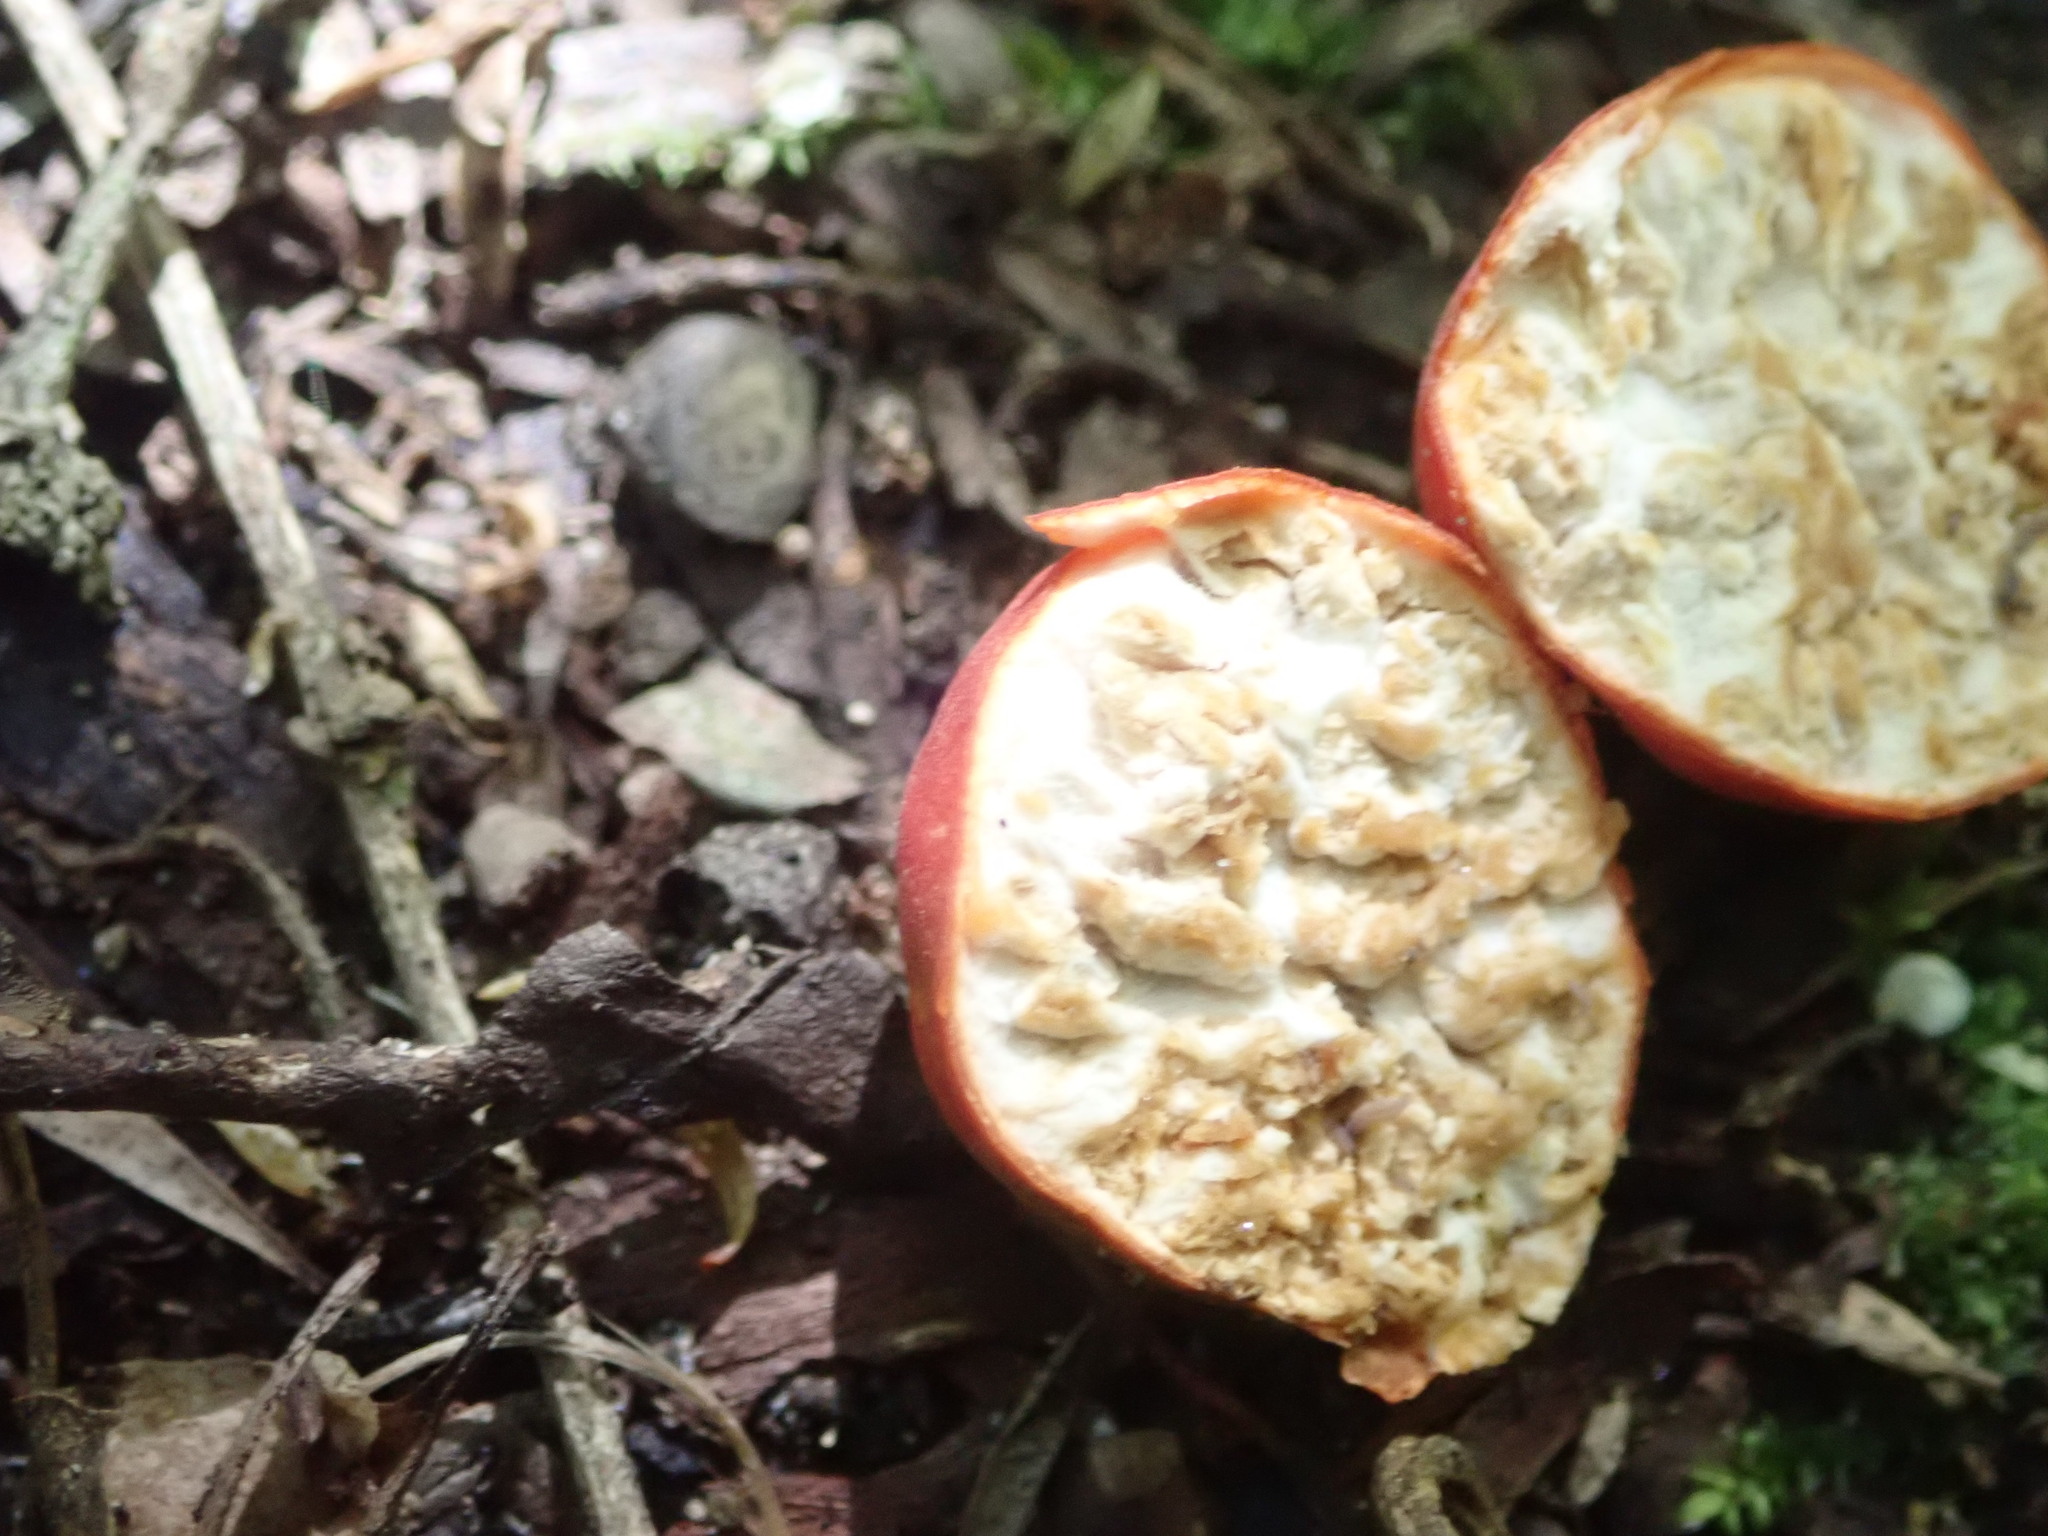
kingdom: Fungi
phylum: Ascomycota
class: Pezizomycetes
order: Pezizales
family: Pyronemataceae
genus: Paurocotylis
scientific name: Paurocotylis pila
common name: Scarlet berry truffle
